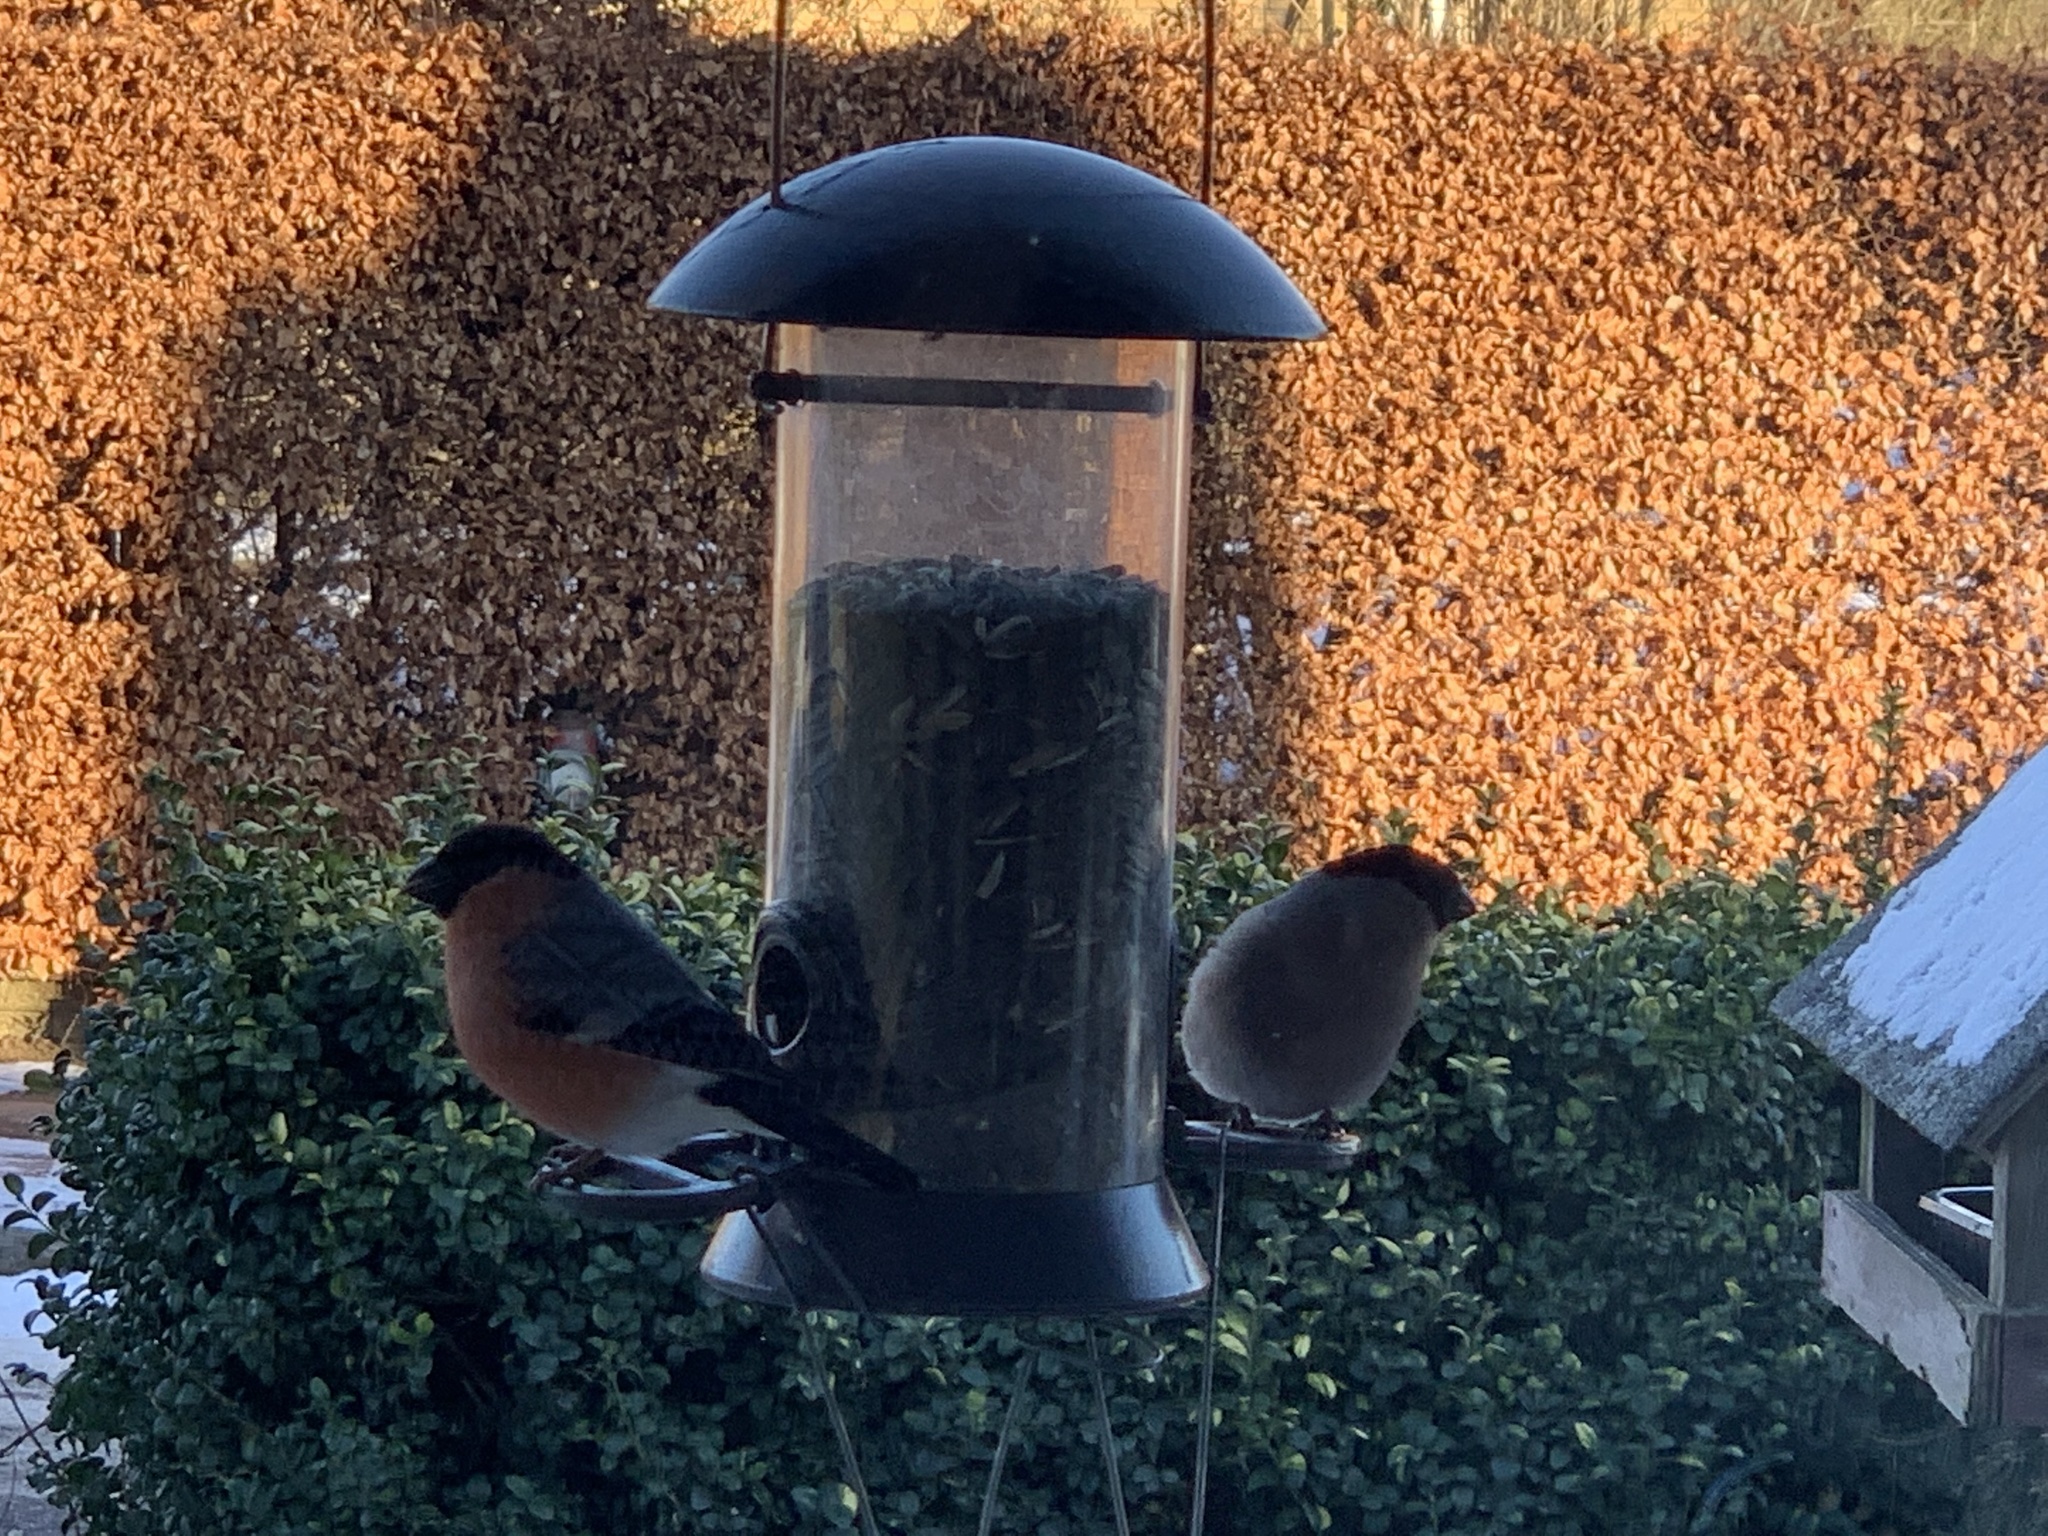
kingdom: Animalia
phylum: Chordata
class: Aves
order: Passeriformes
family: Fringillidae
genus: Pyrrhula
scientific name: Pyrrhula pyrrhula
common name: Eurasian bullfinch
